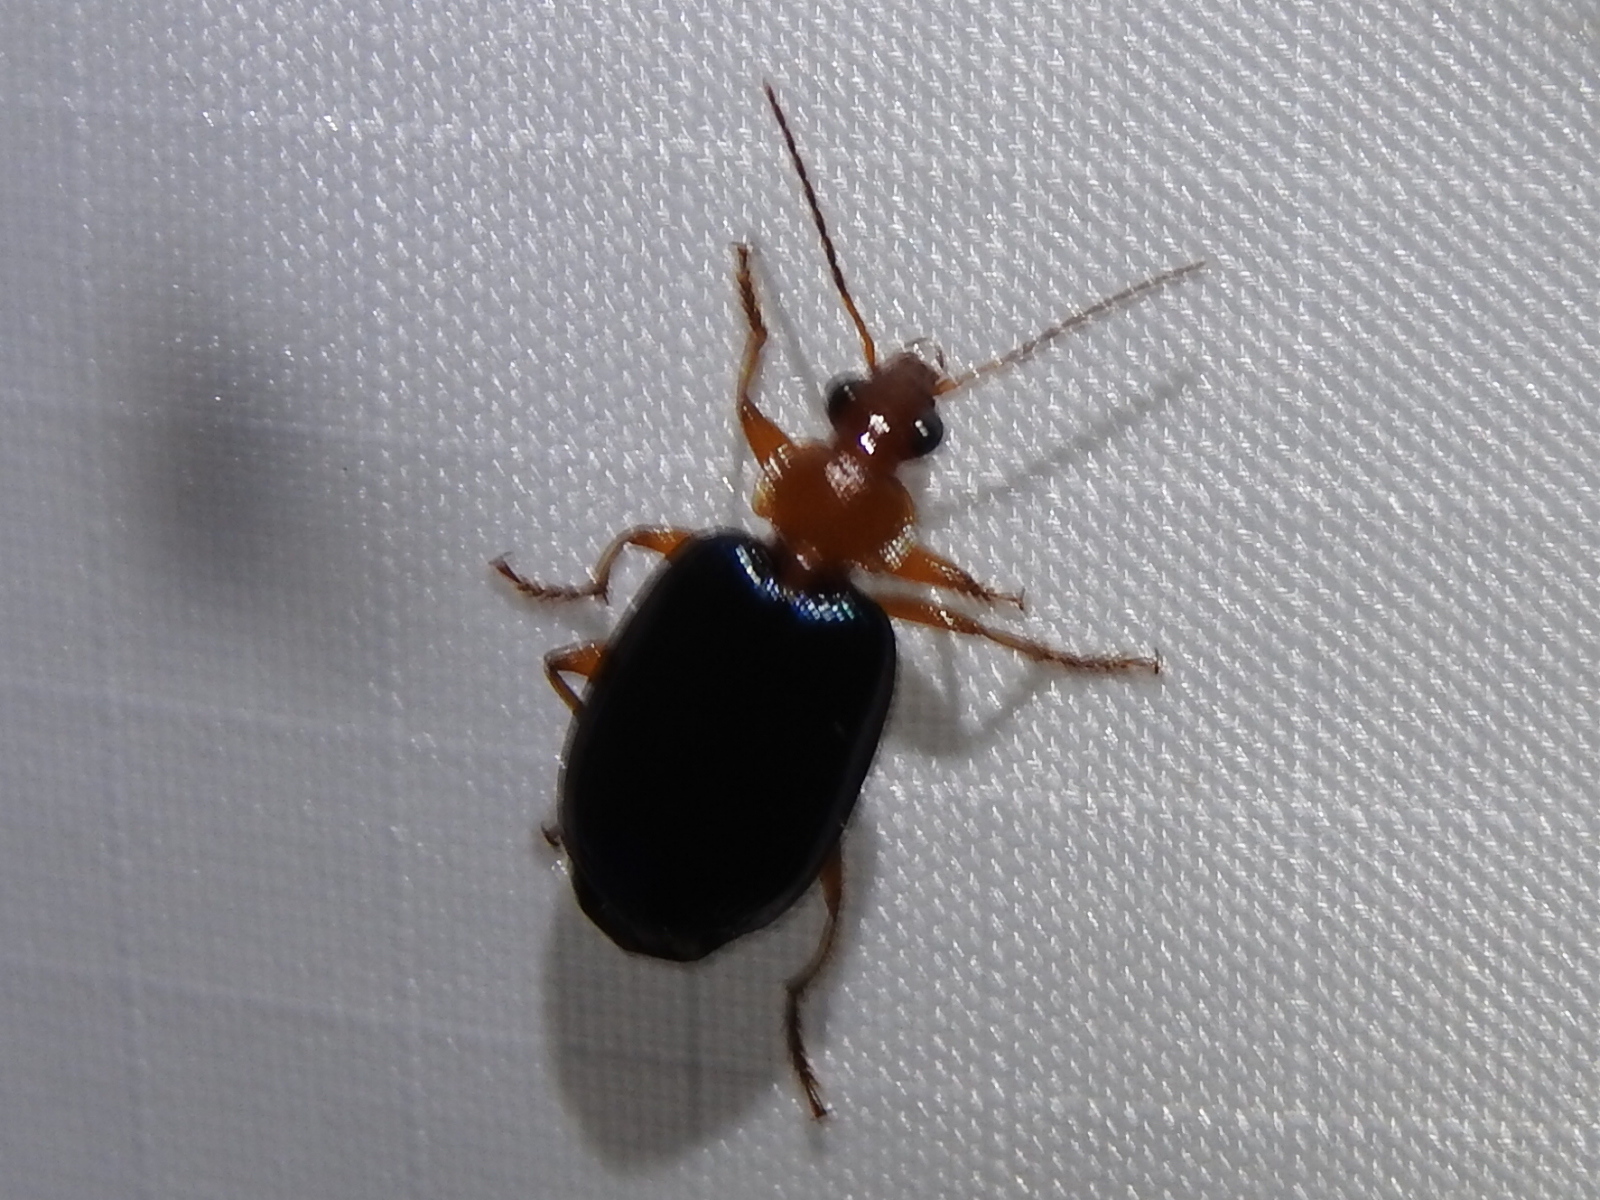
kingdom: Animalia
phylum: Arthropoda
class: Insecta
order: Coleoptera
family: Carabidae
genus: Lebia
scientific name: Lebia grandis
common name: Large foliage ground beetle
